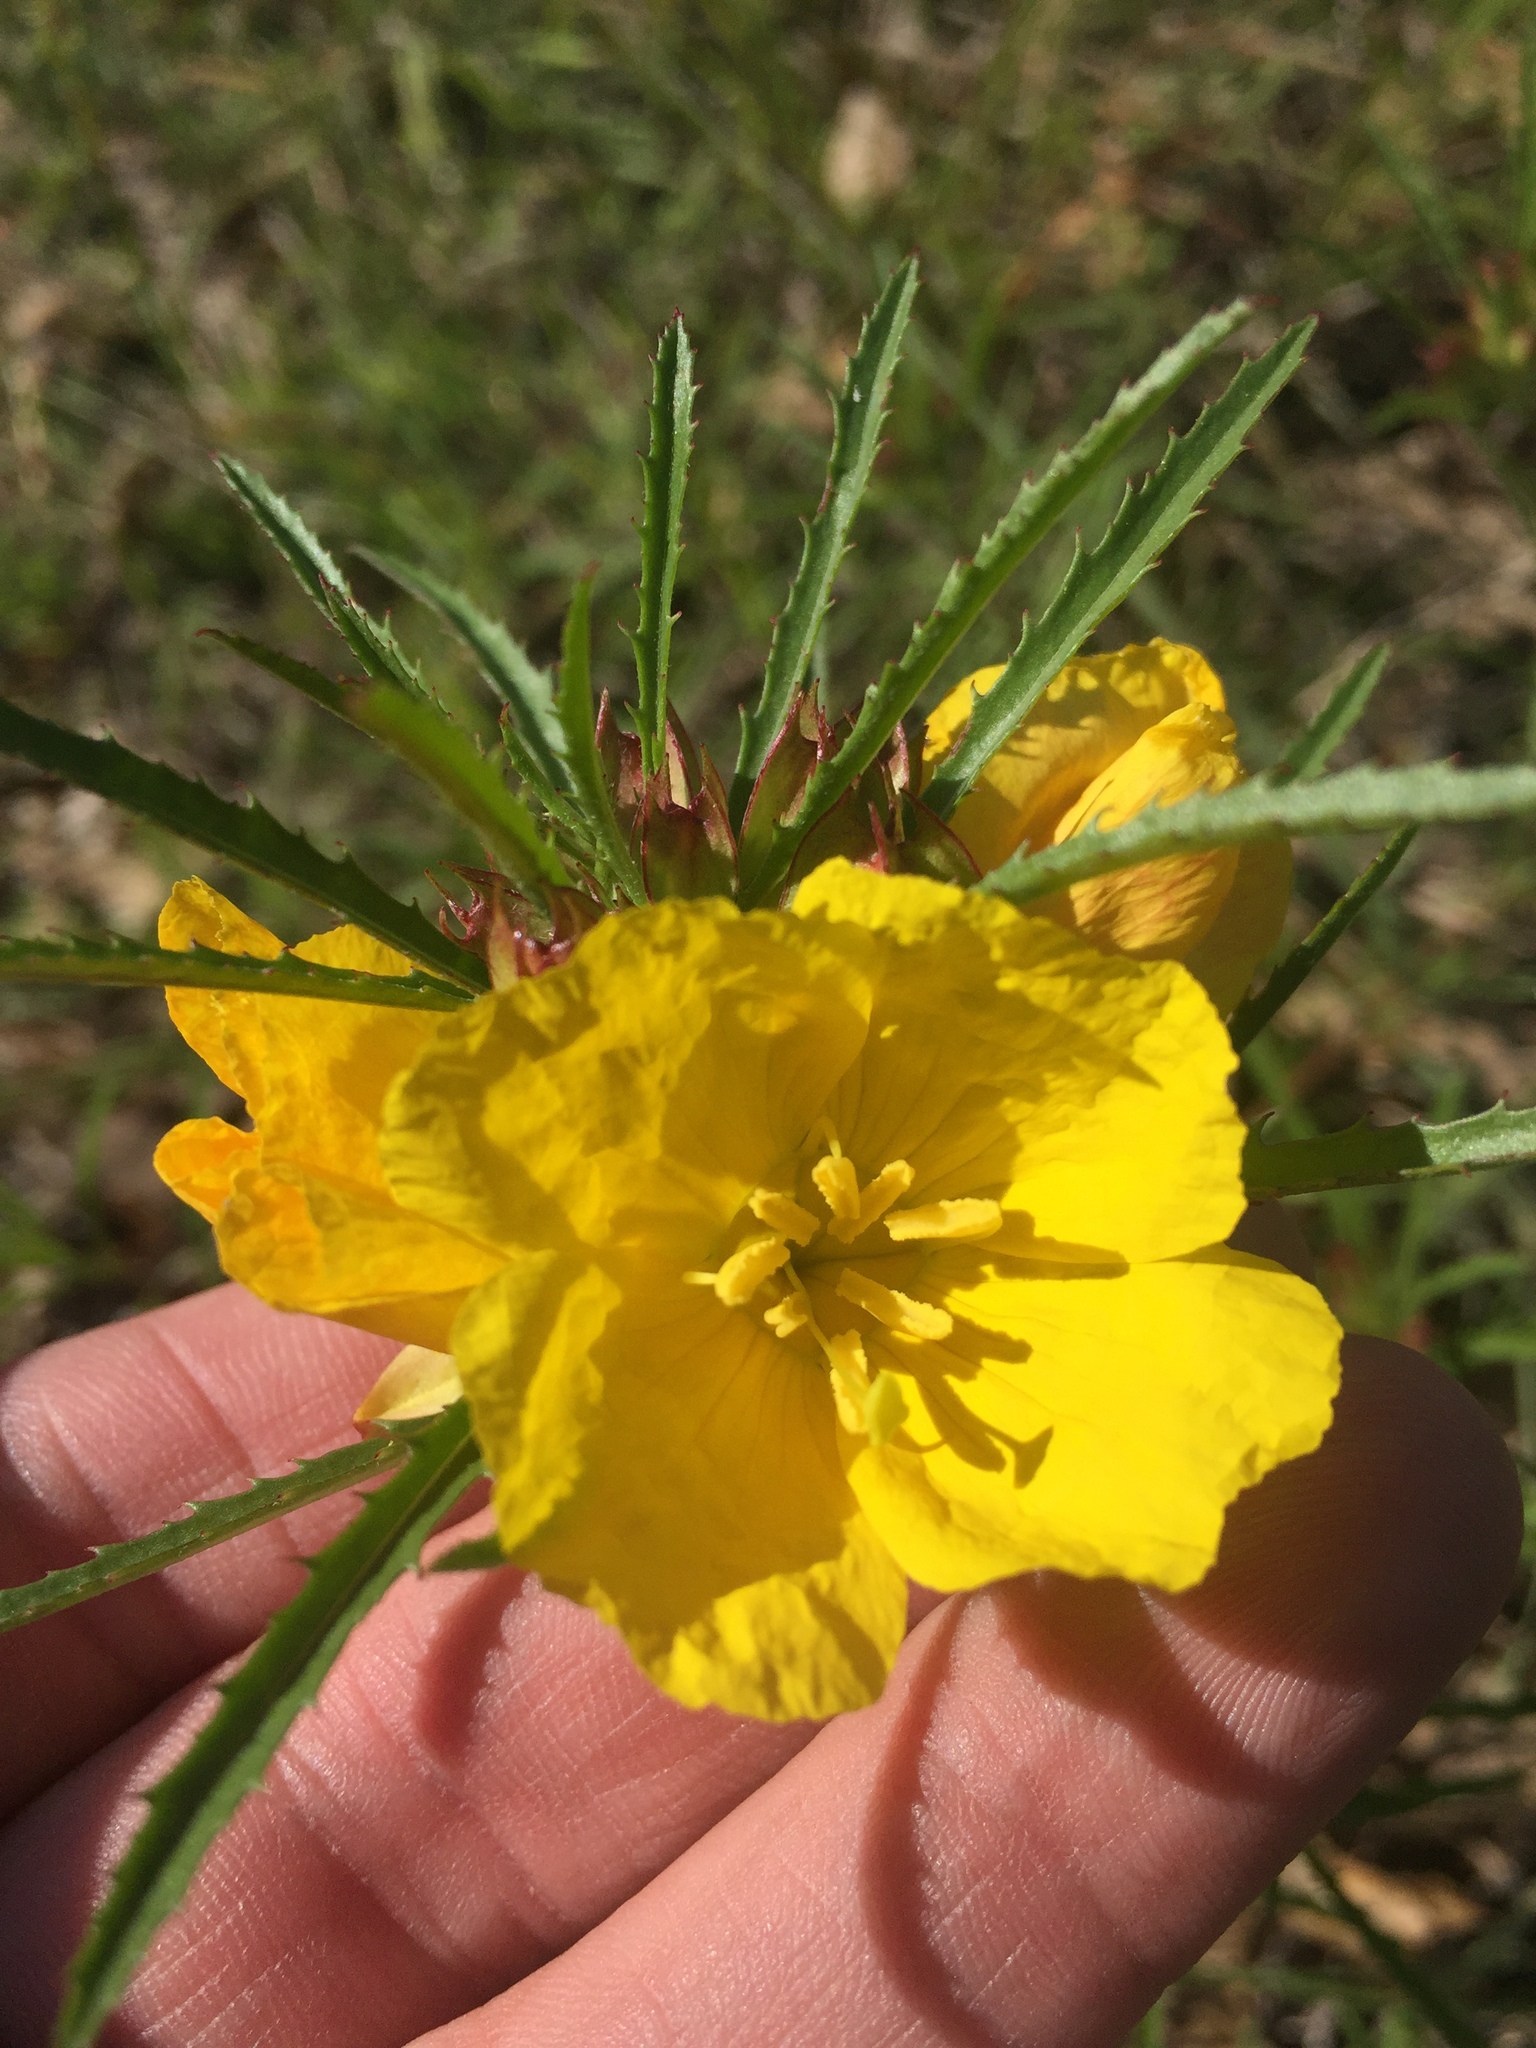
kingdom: Plantae
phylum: Tracheophyta
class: Magnoliopsida
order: Myrtales
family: Onagraceae
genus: Oenothera
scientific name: Oenothera
